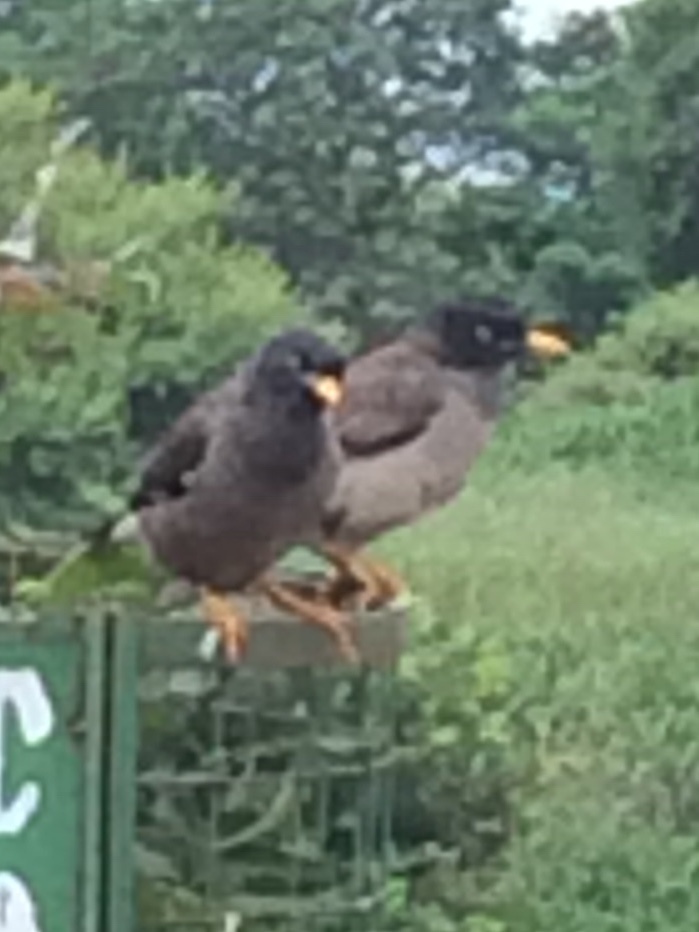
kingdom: Animalia
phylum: Chordata
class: Aves
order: Passeriformes
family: Sturnidae
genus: Acridotheres
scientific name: Acridotheres fuscus
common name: Jungle myna
